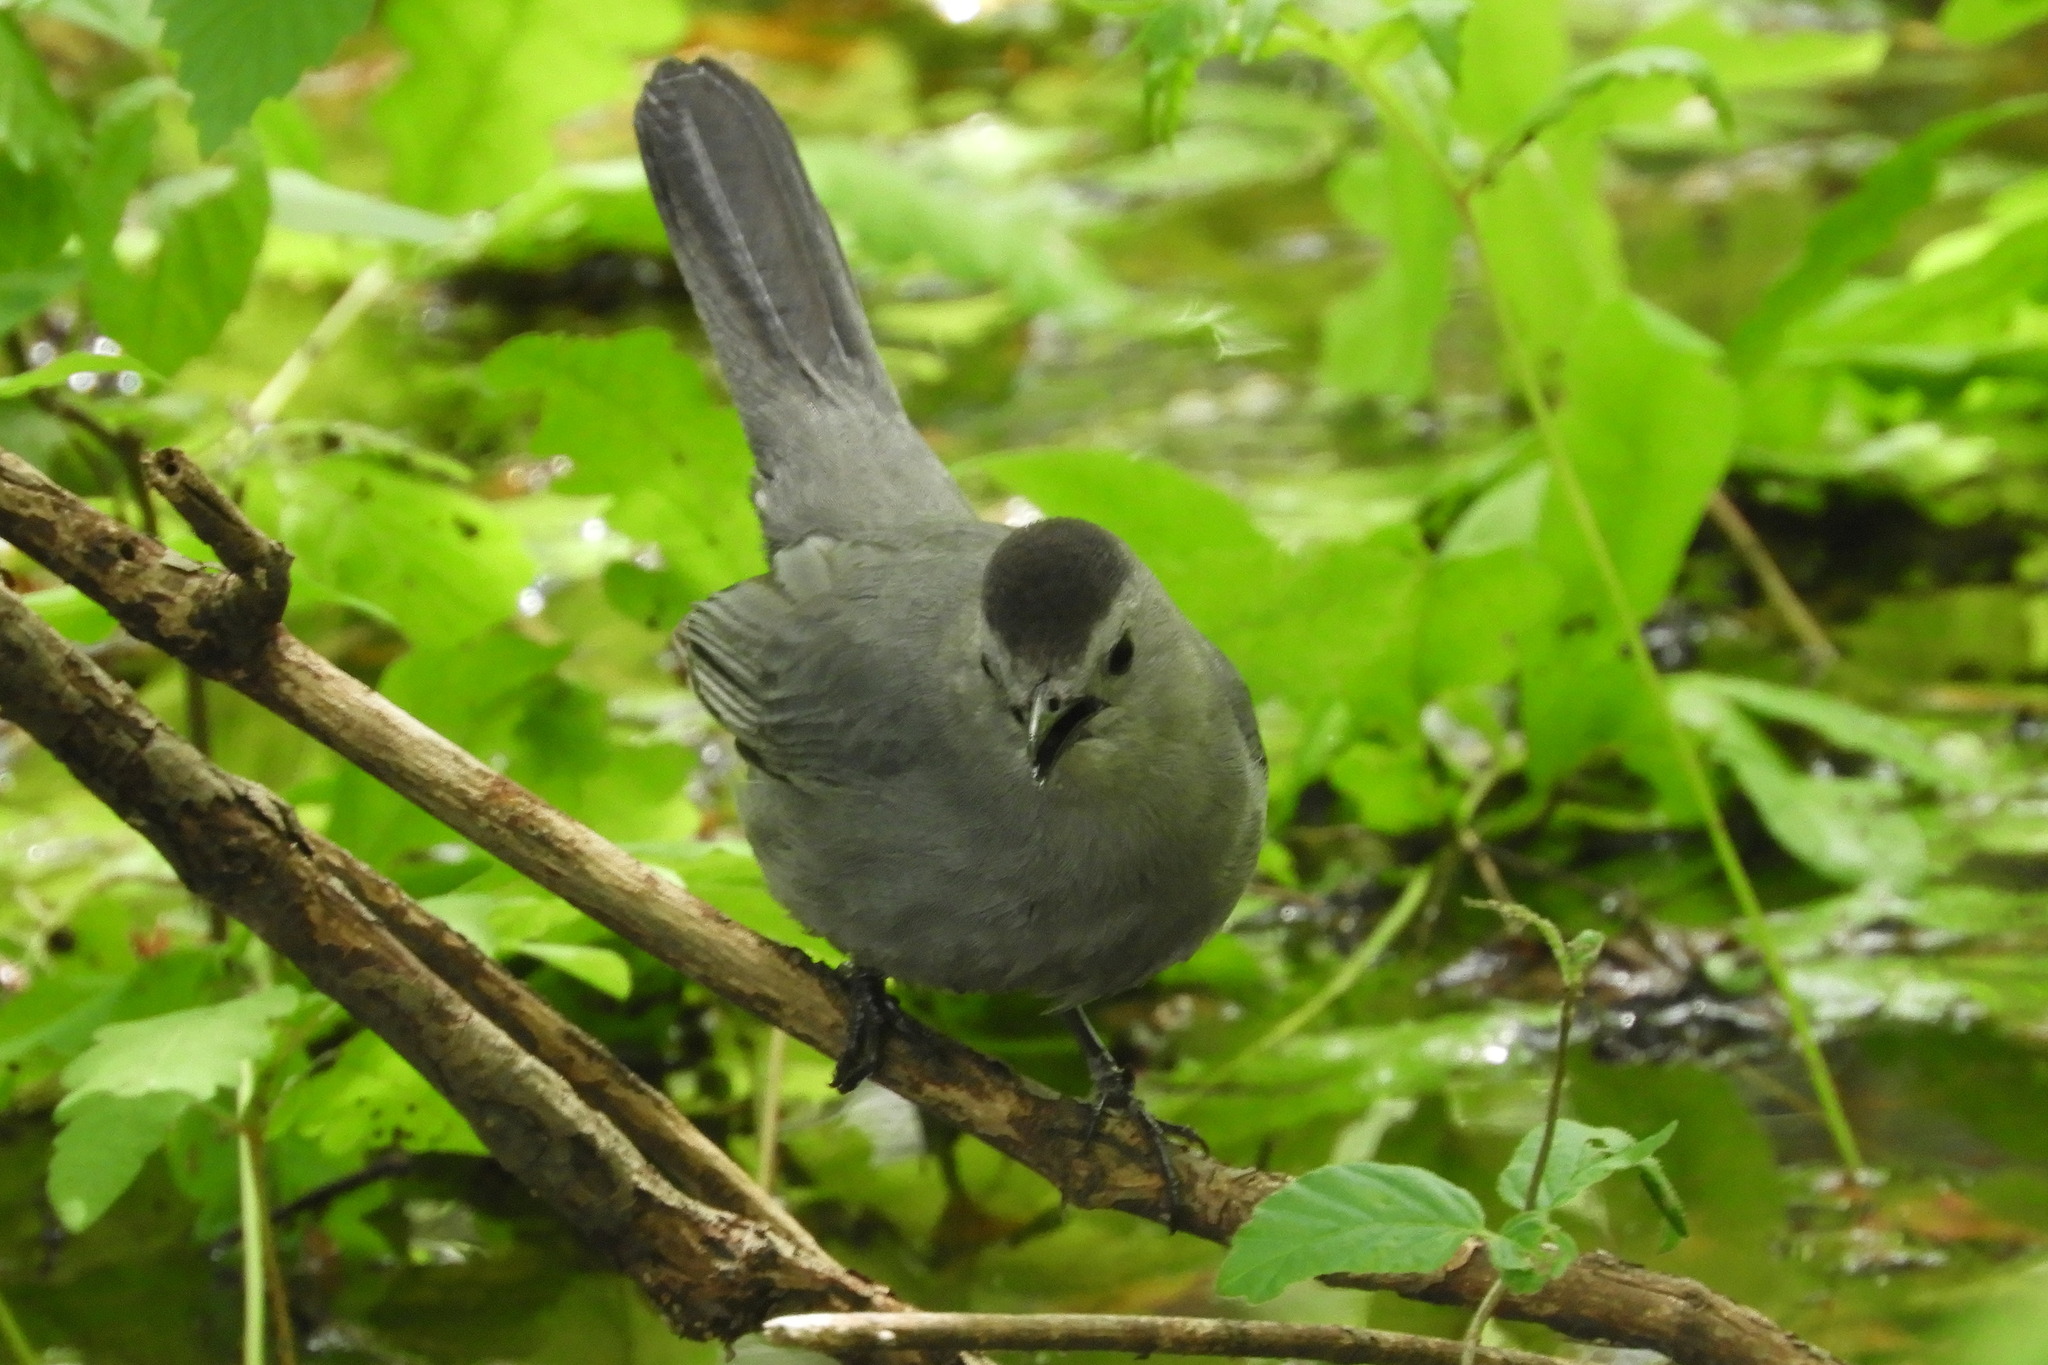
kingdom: Animalia
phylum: Chordata
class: Aves
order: Passeriformes
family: Mimidae
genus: Dumetella
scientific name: Dumetella carolinensis
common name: Gray catbird
